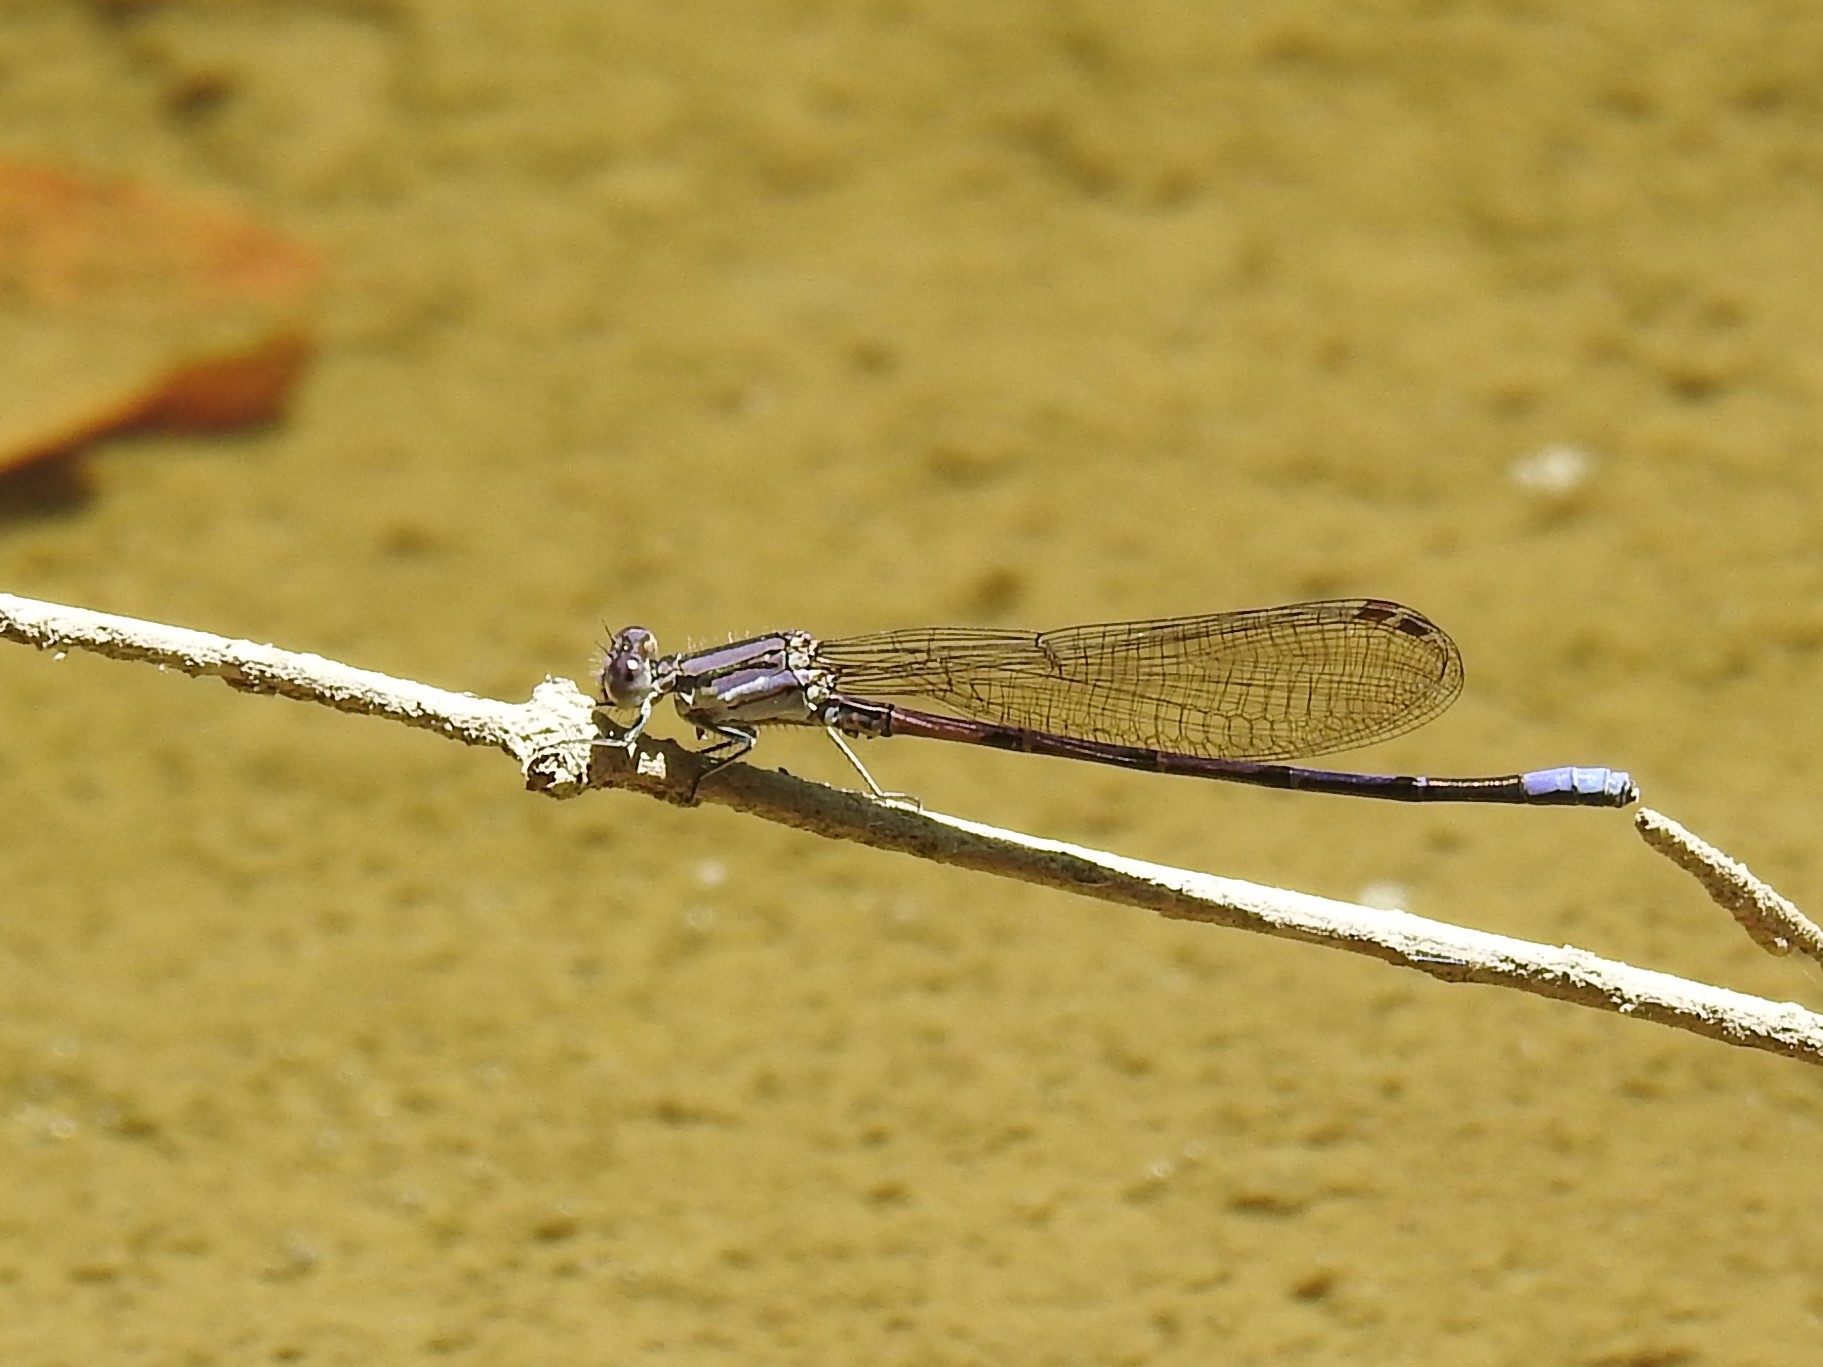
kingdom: Animalia
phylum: Arthropoda
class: Insecta
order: Odonata
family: Coenagrionidae
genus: Argia
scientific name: Argia fumipennis
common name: Variable dancer
